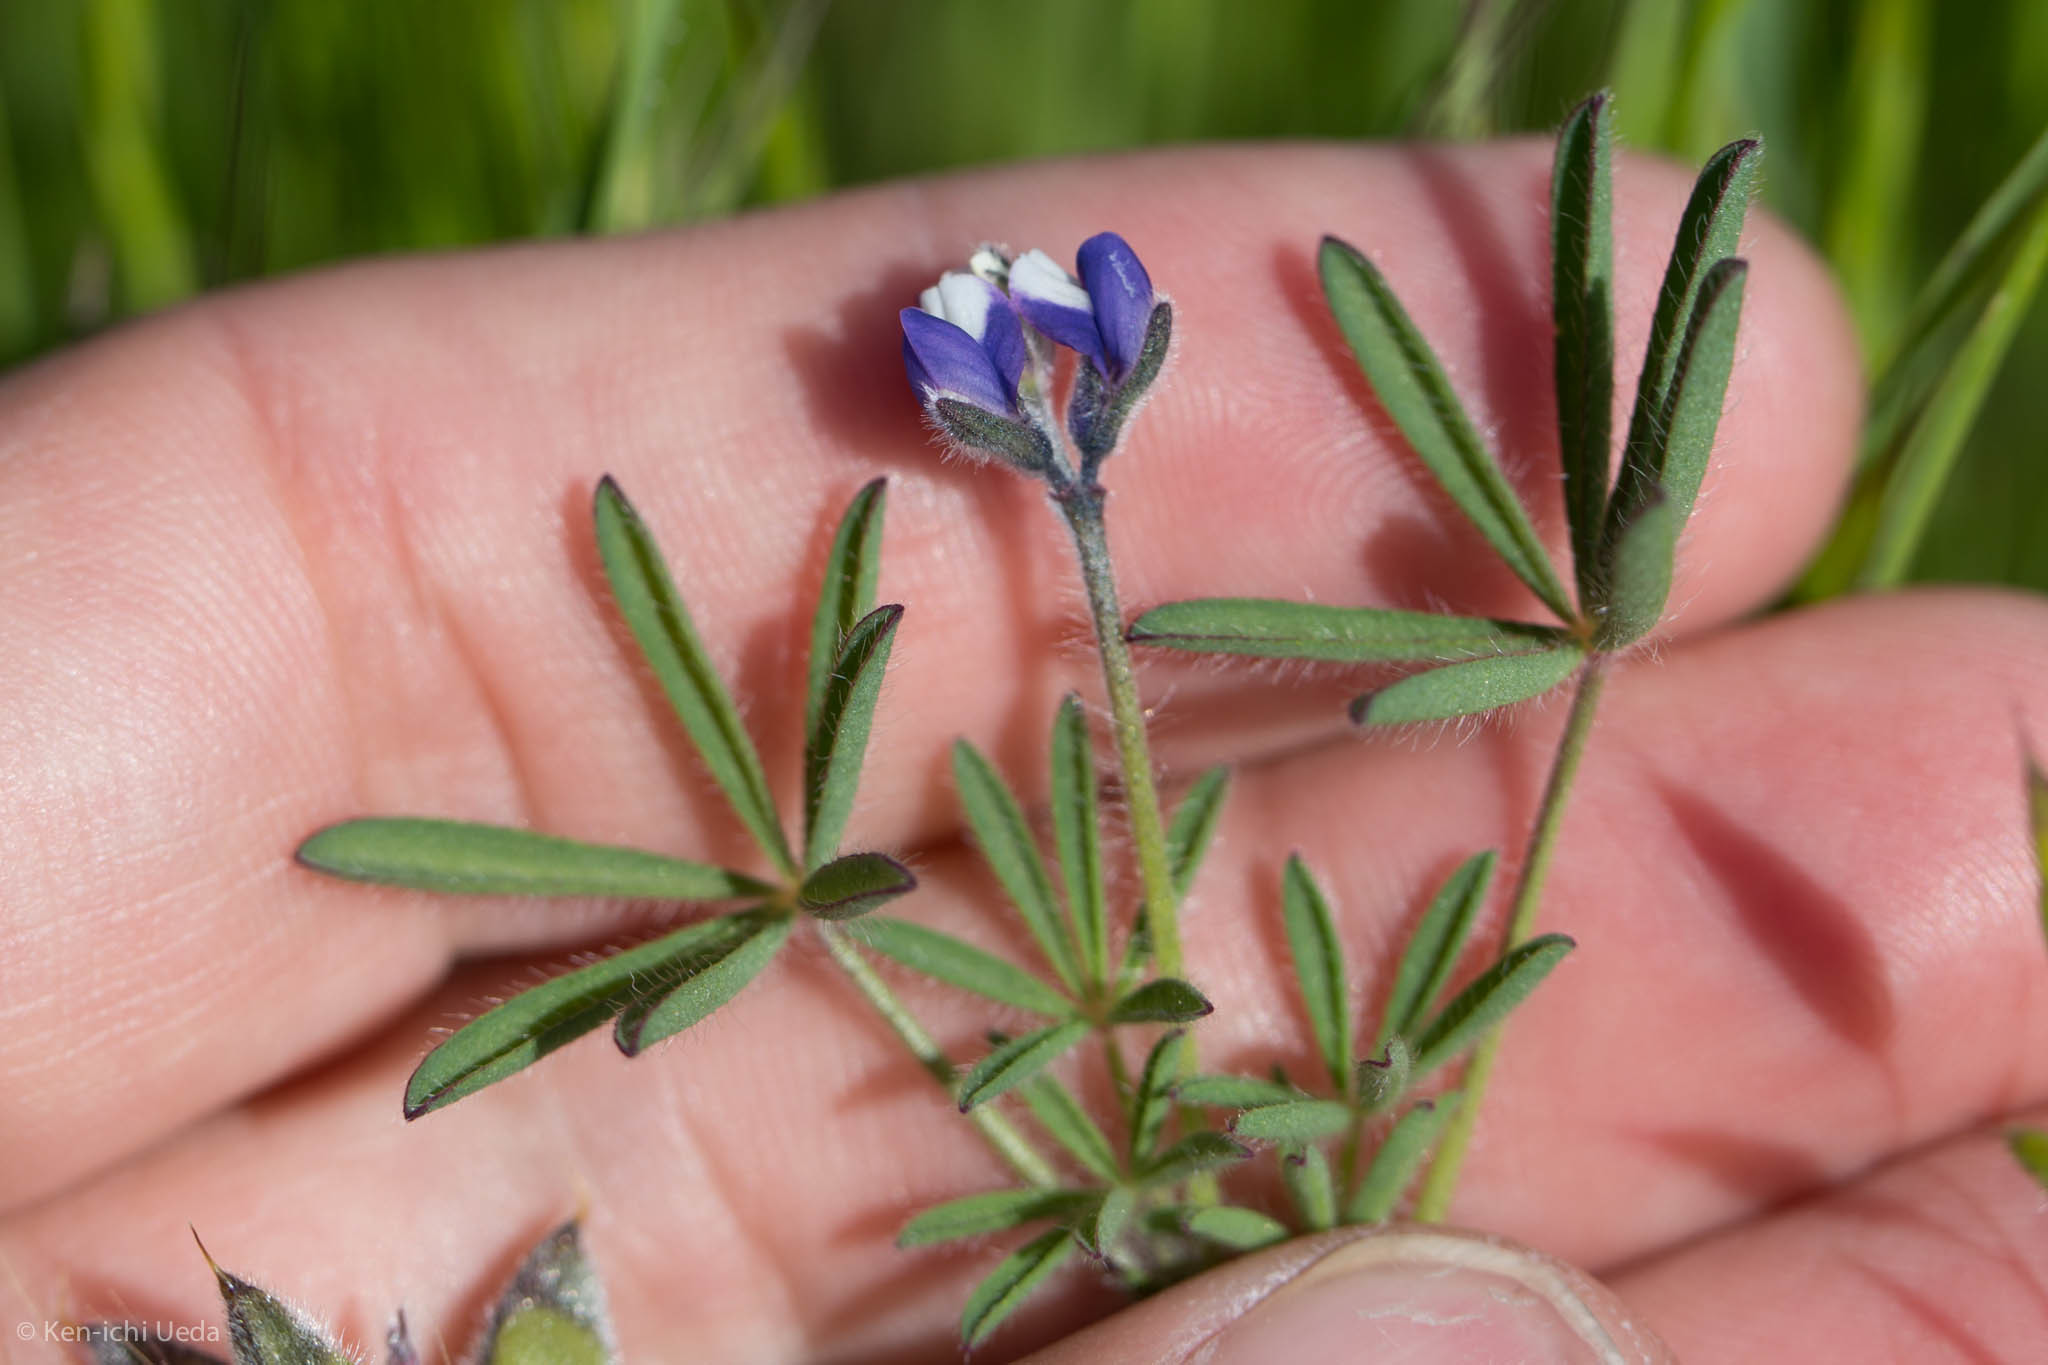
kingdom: Plantae
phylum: Tracheophyta
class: Magnoliopsida
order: Fabales
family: Fabaceae
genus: Lupinus
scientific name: Lupinus bicolor
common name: Miniature lupine
